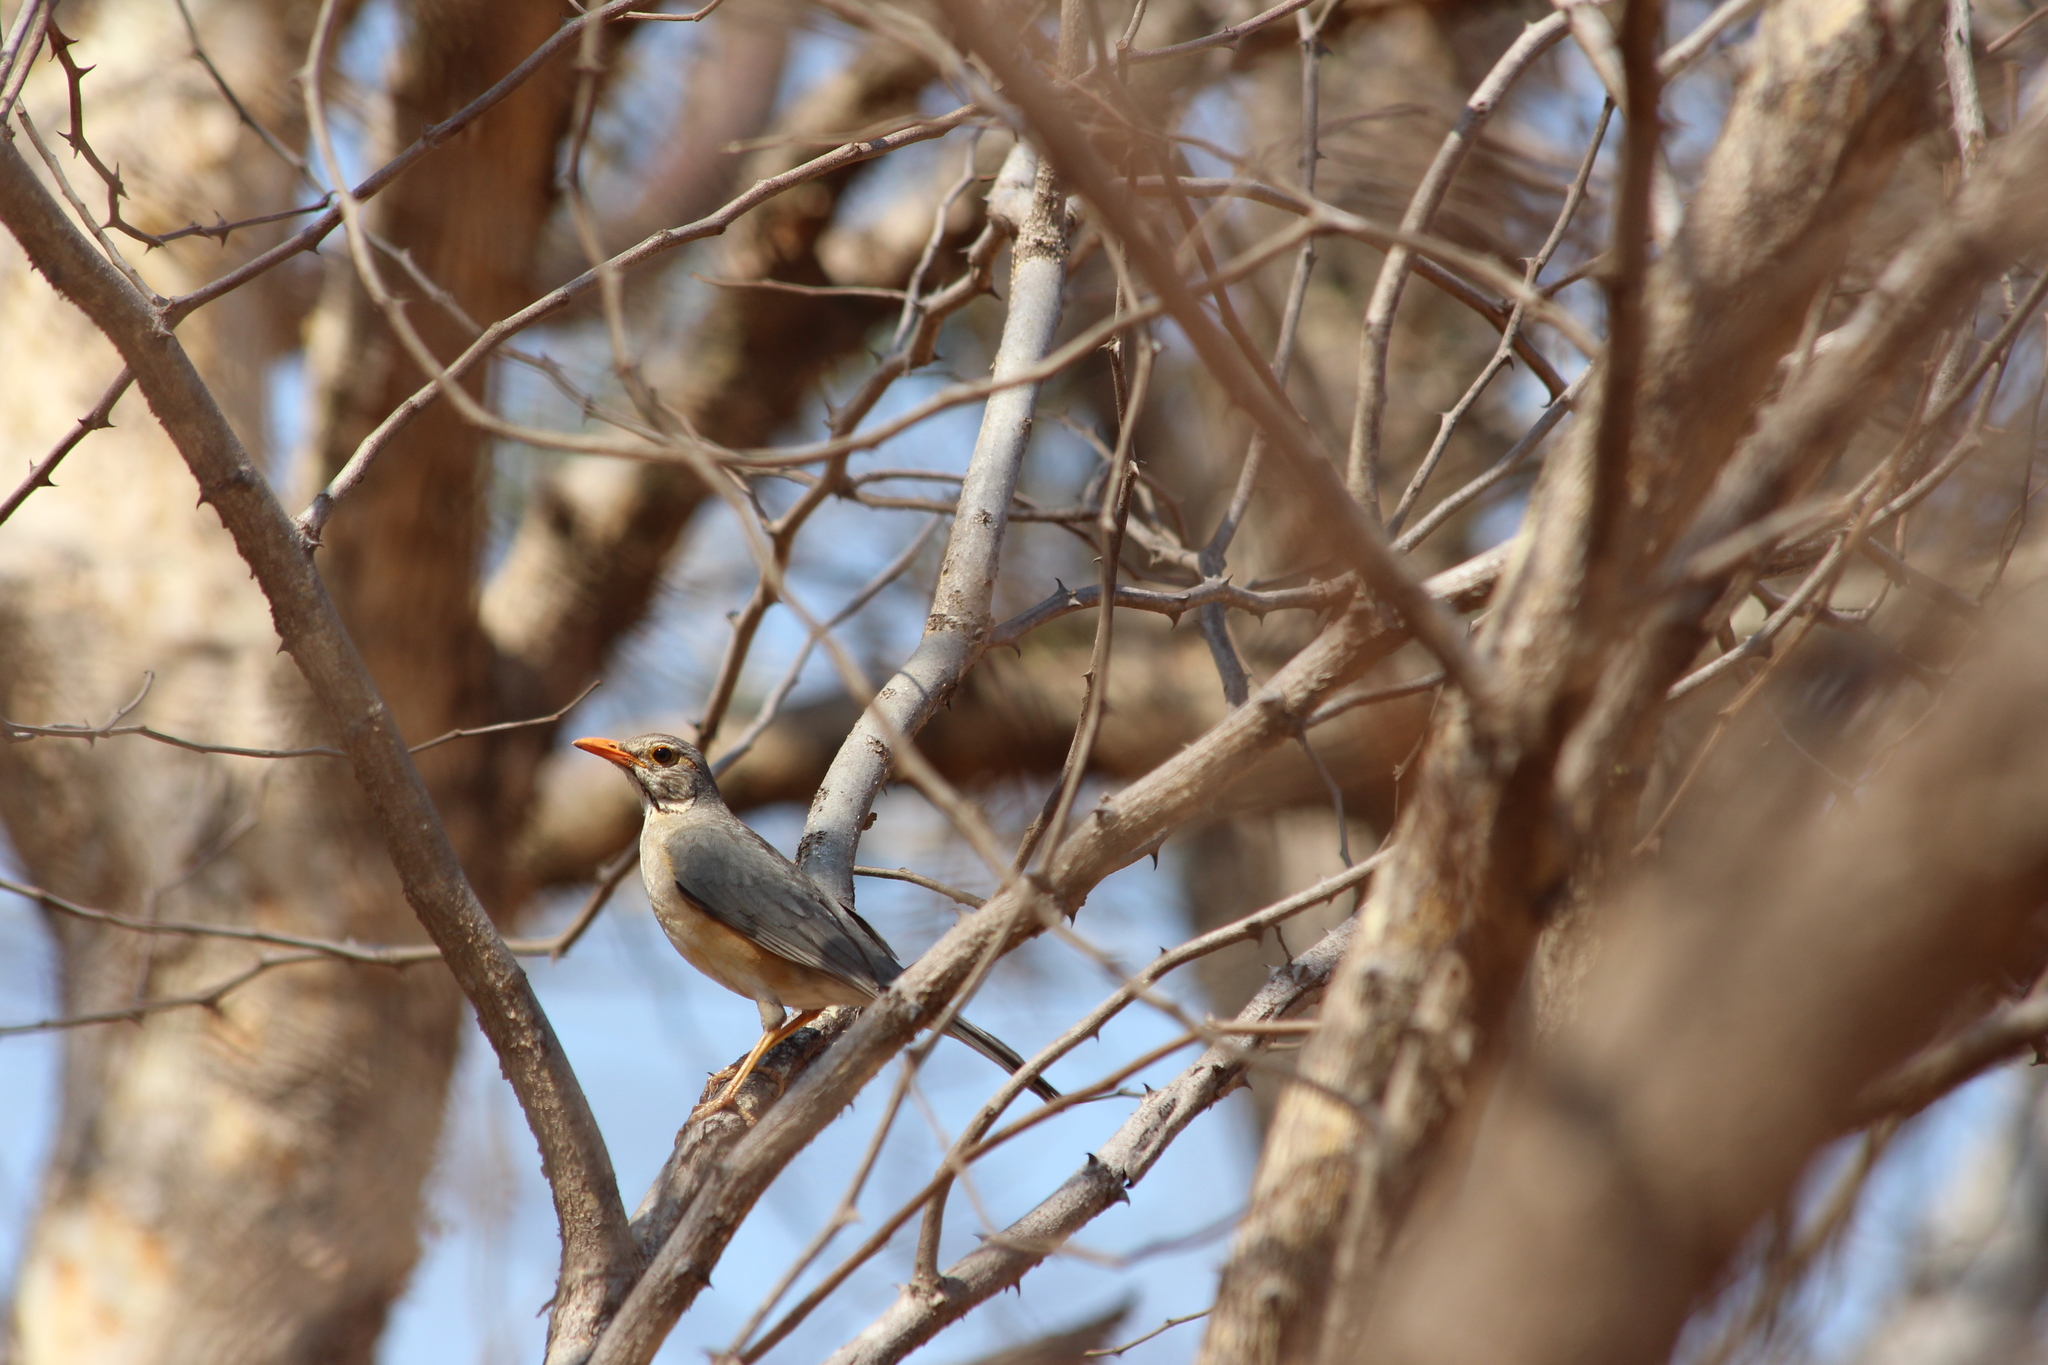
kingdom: Animalia
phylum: Chordata
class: Aves
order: Passeriformes
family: Turdidae
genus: Turdus
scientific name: Turdus libonyana
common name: Kurrichane thrush
